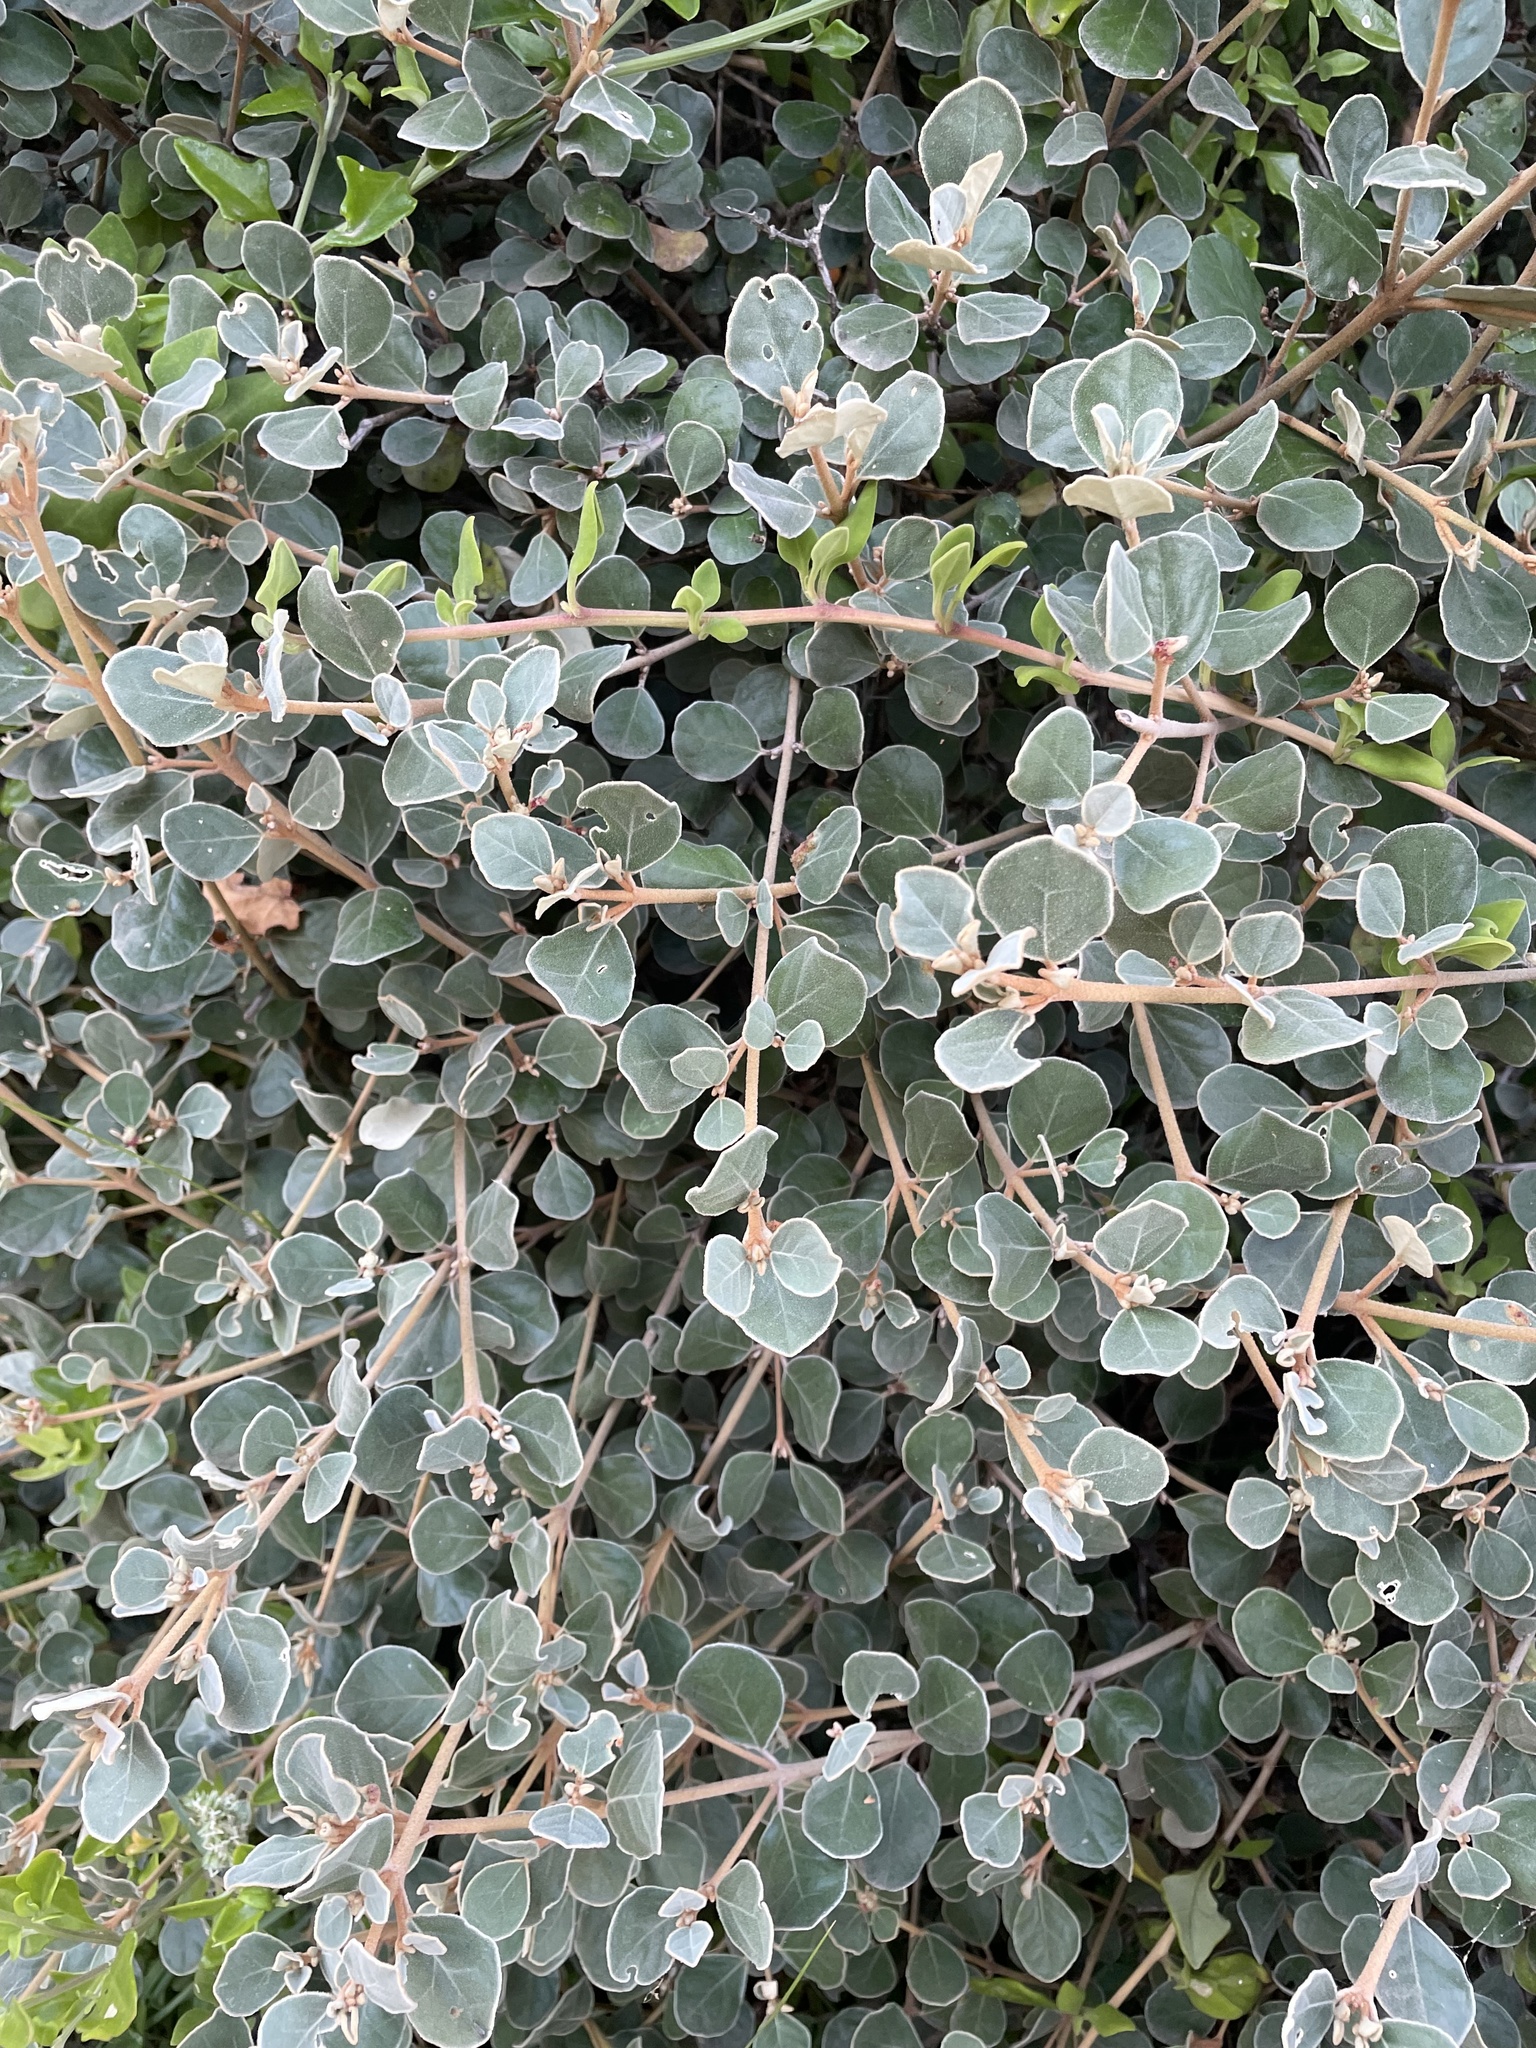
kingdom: Plantae
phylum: Tracheophyta
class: Magnoliopsida
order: Sapindales
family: Rutaceae
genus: Correa
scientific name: Correa alba
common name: White correa
